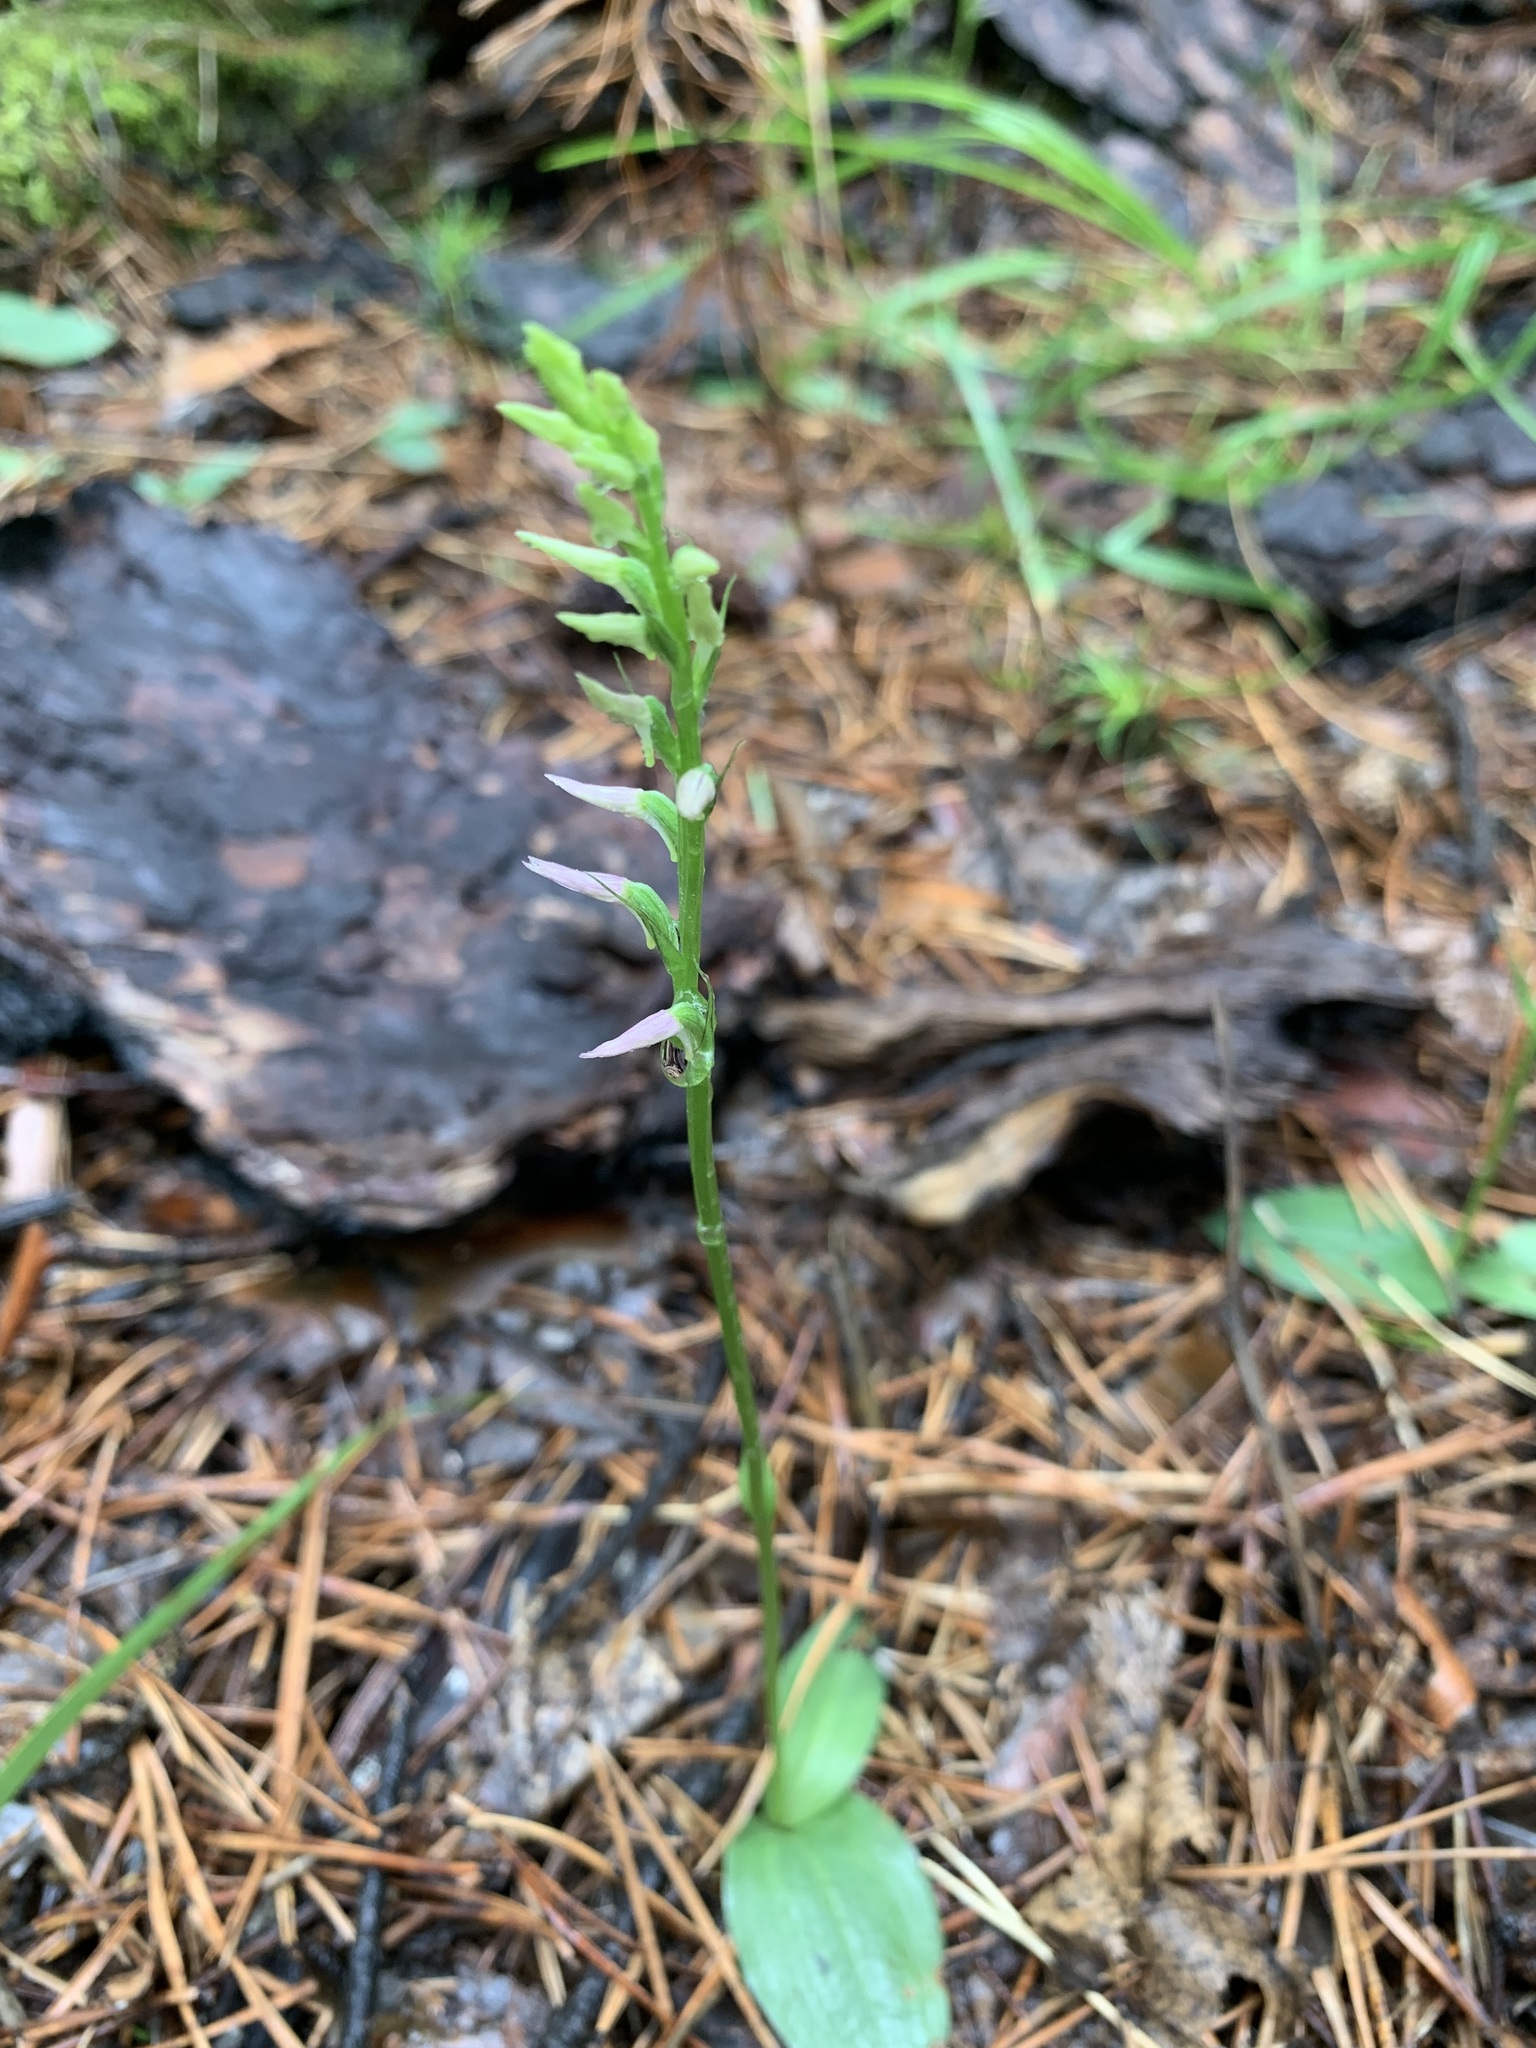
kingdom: Plantae
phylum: Tracheophyta
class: Liliopsida
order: Asparagales
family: Orchidaceae
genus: Hemipilia
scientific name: Hemipilia cucullata
